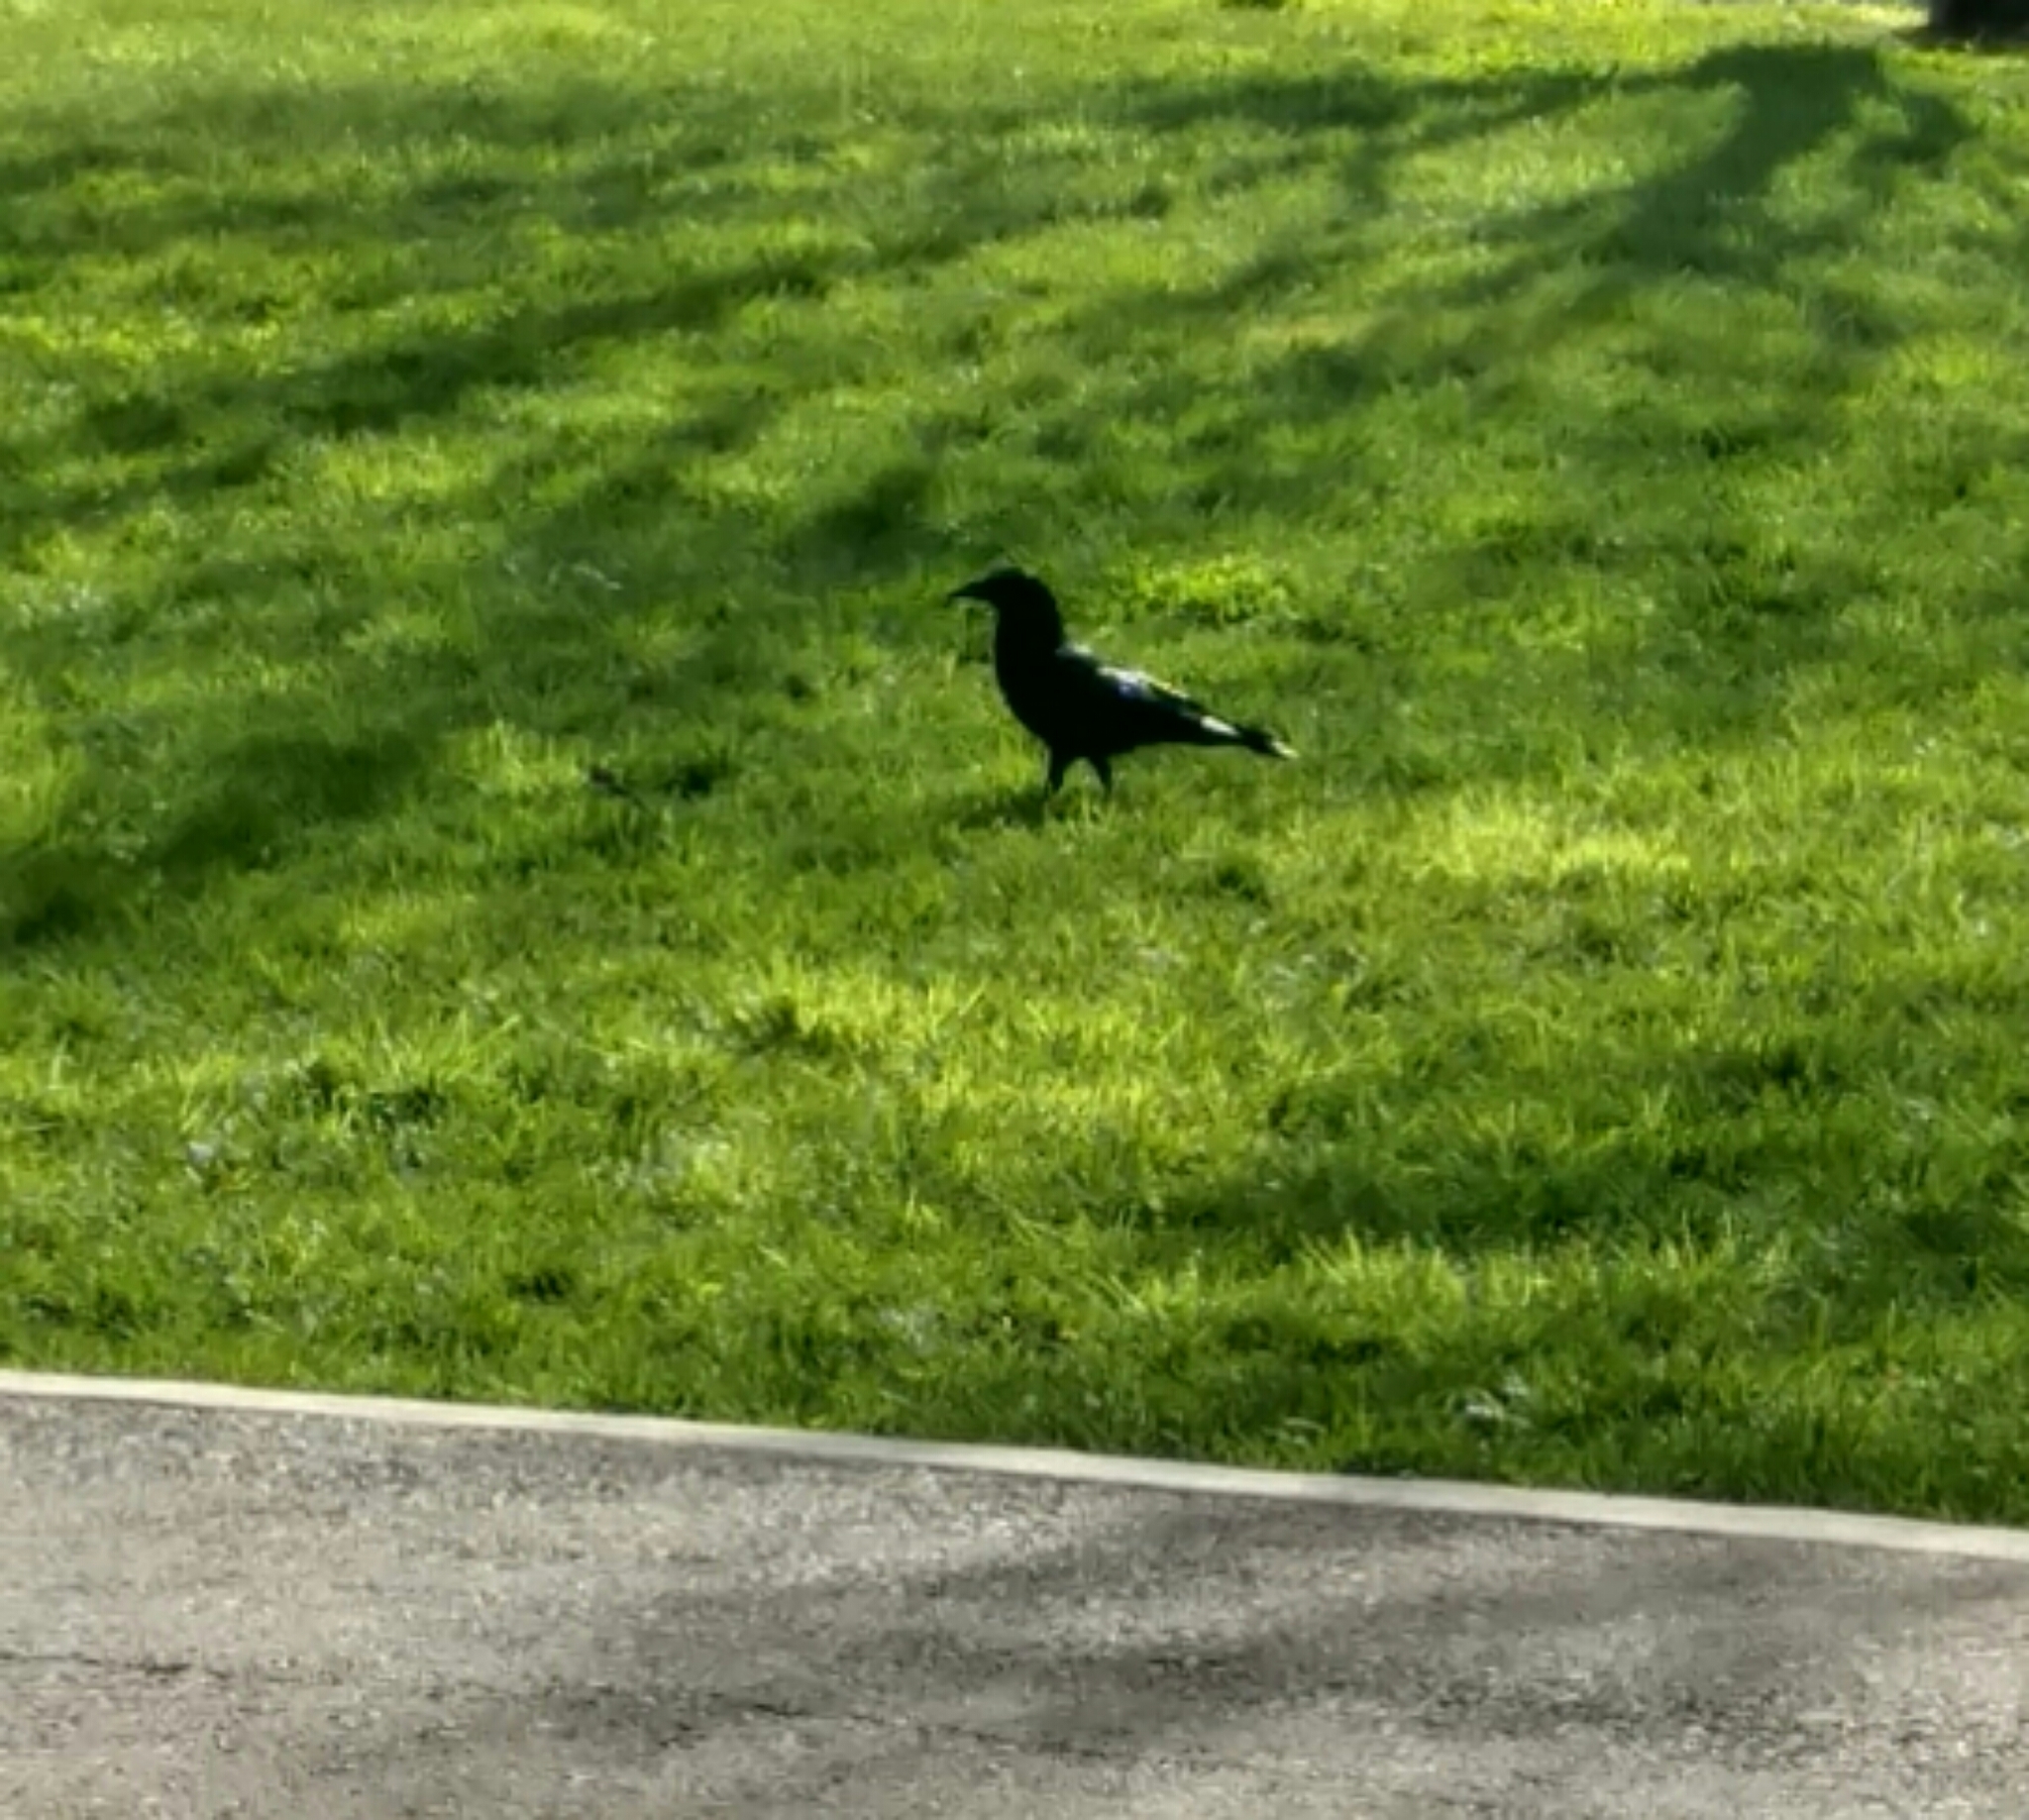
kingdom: Animalia
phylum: Chordata
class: Aves
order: Passeriformes
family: Corvidae
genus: Corvus
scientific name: Corvus brachyrhynchos
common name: American crow
